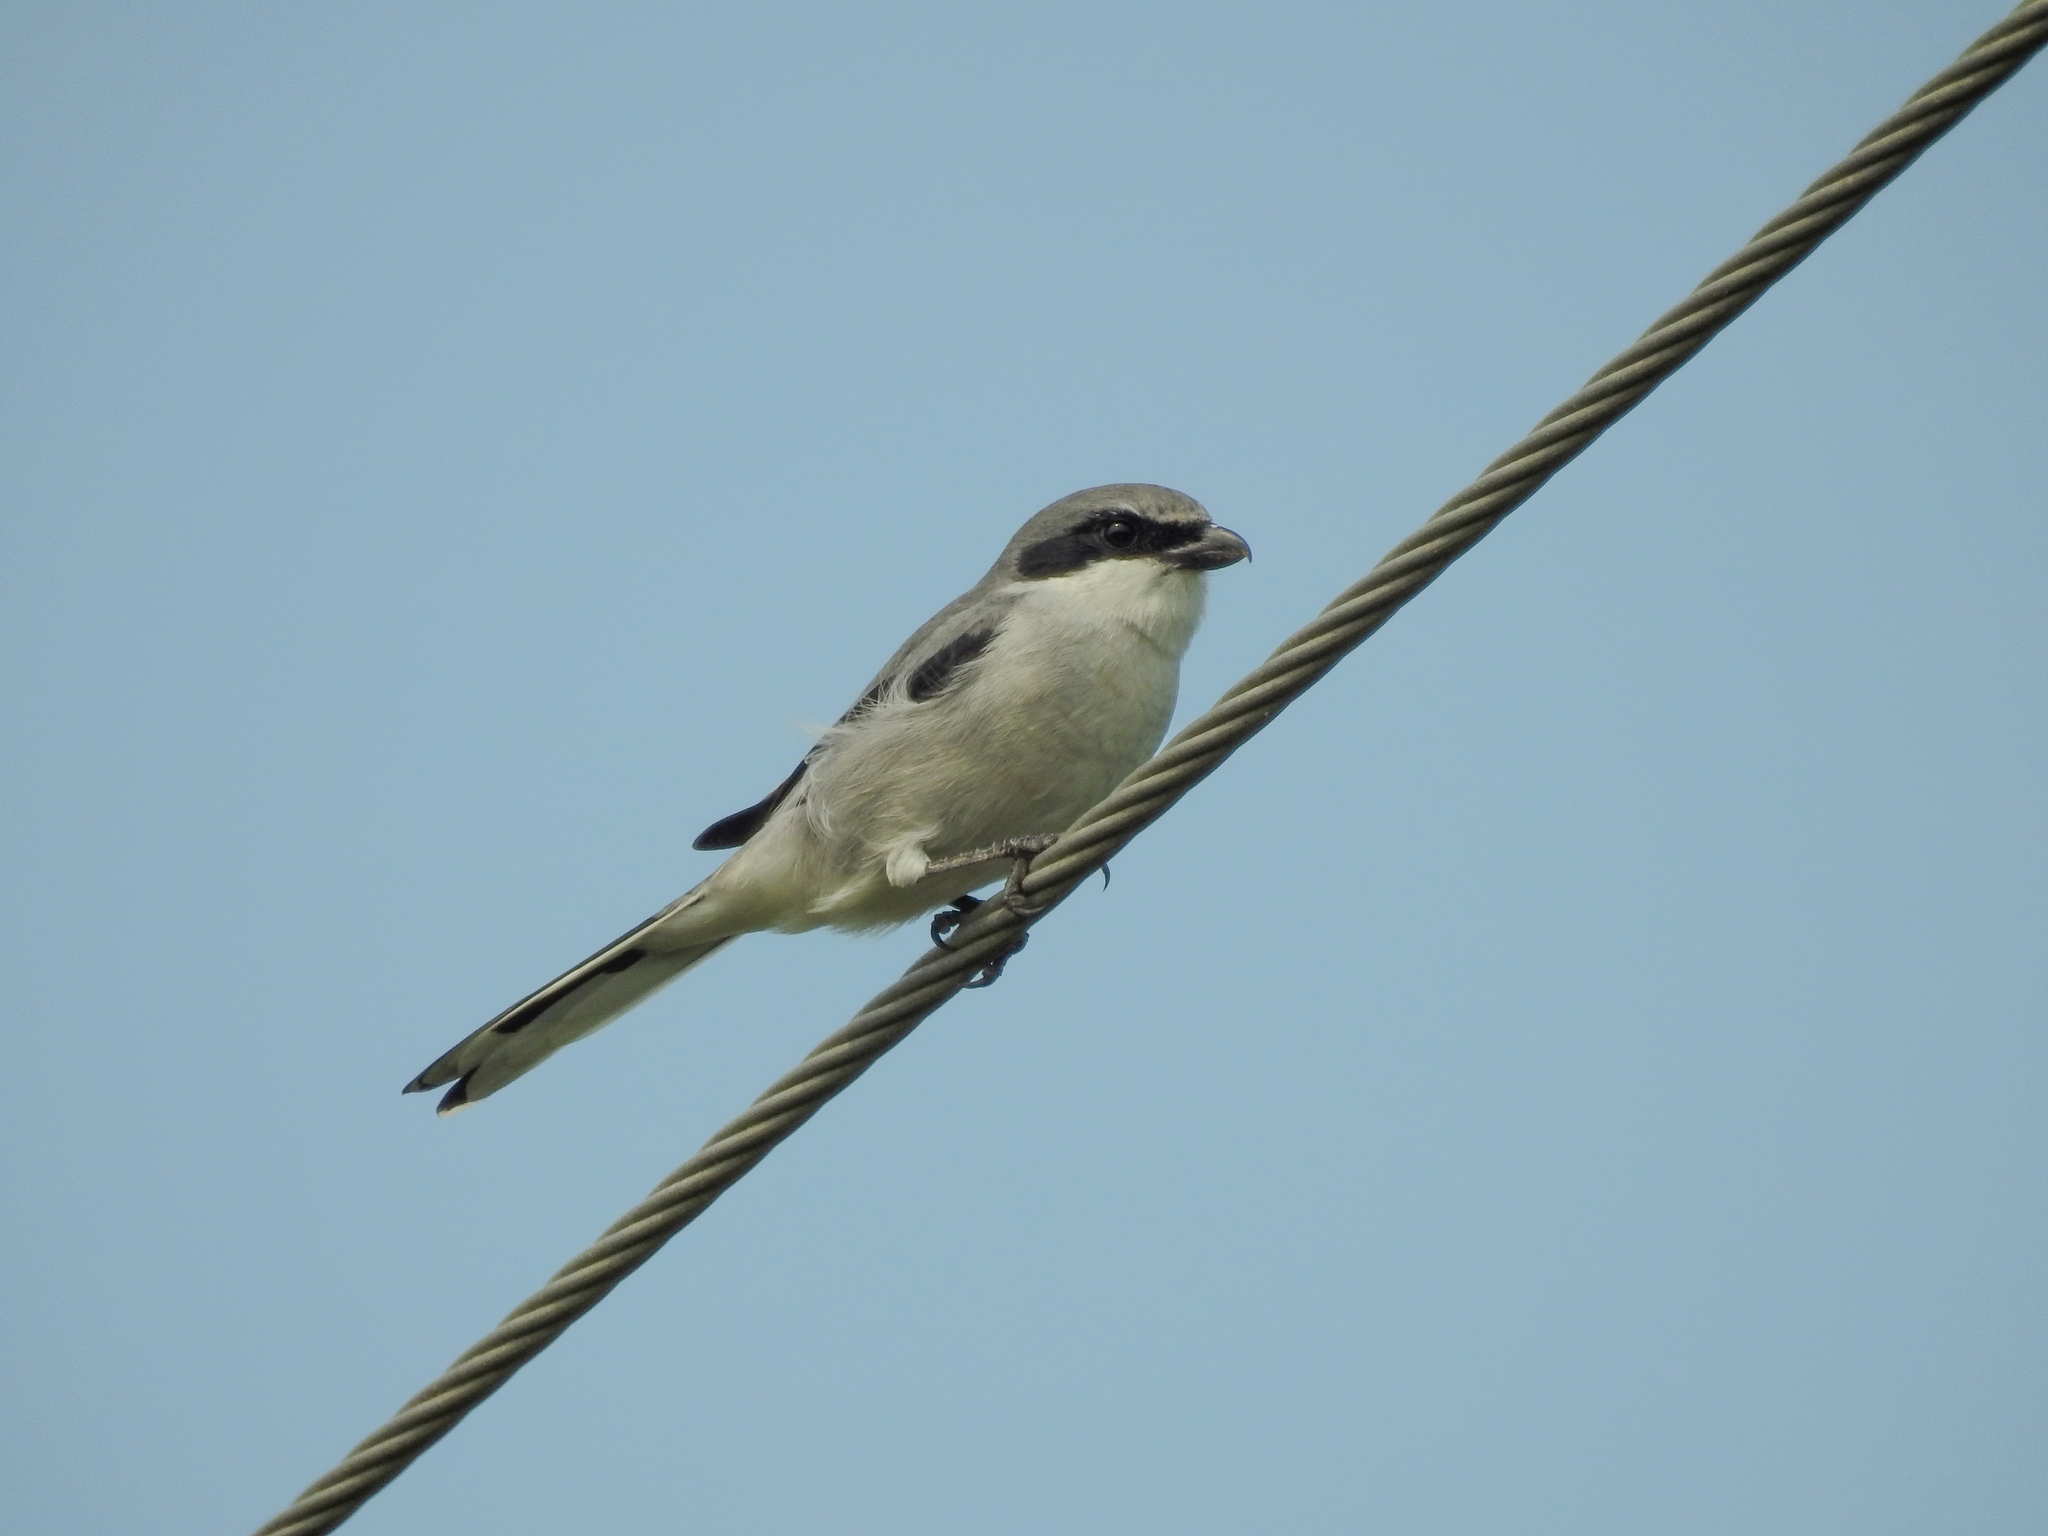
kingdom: Animalia
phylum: Chordata
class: Aves
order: Passeriformes
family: Laniidae
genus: Lanius
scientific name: Lanius ludovicianus
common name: Loggerhead shrike
